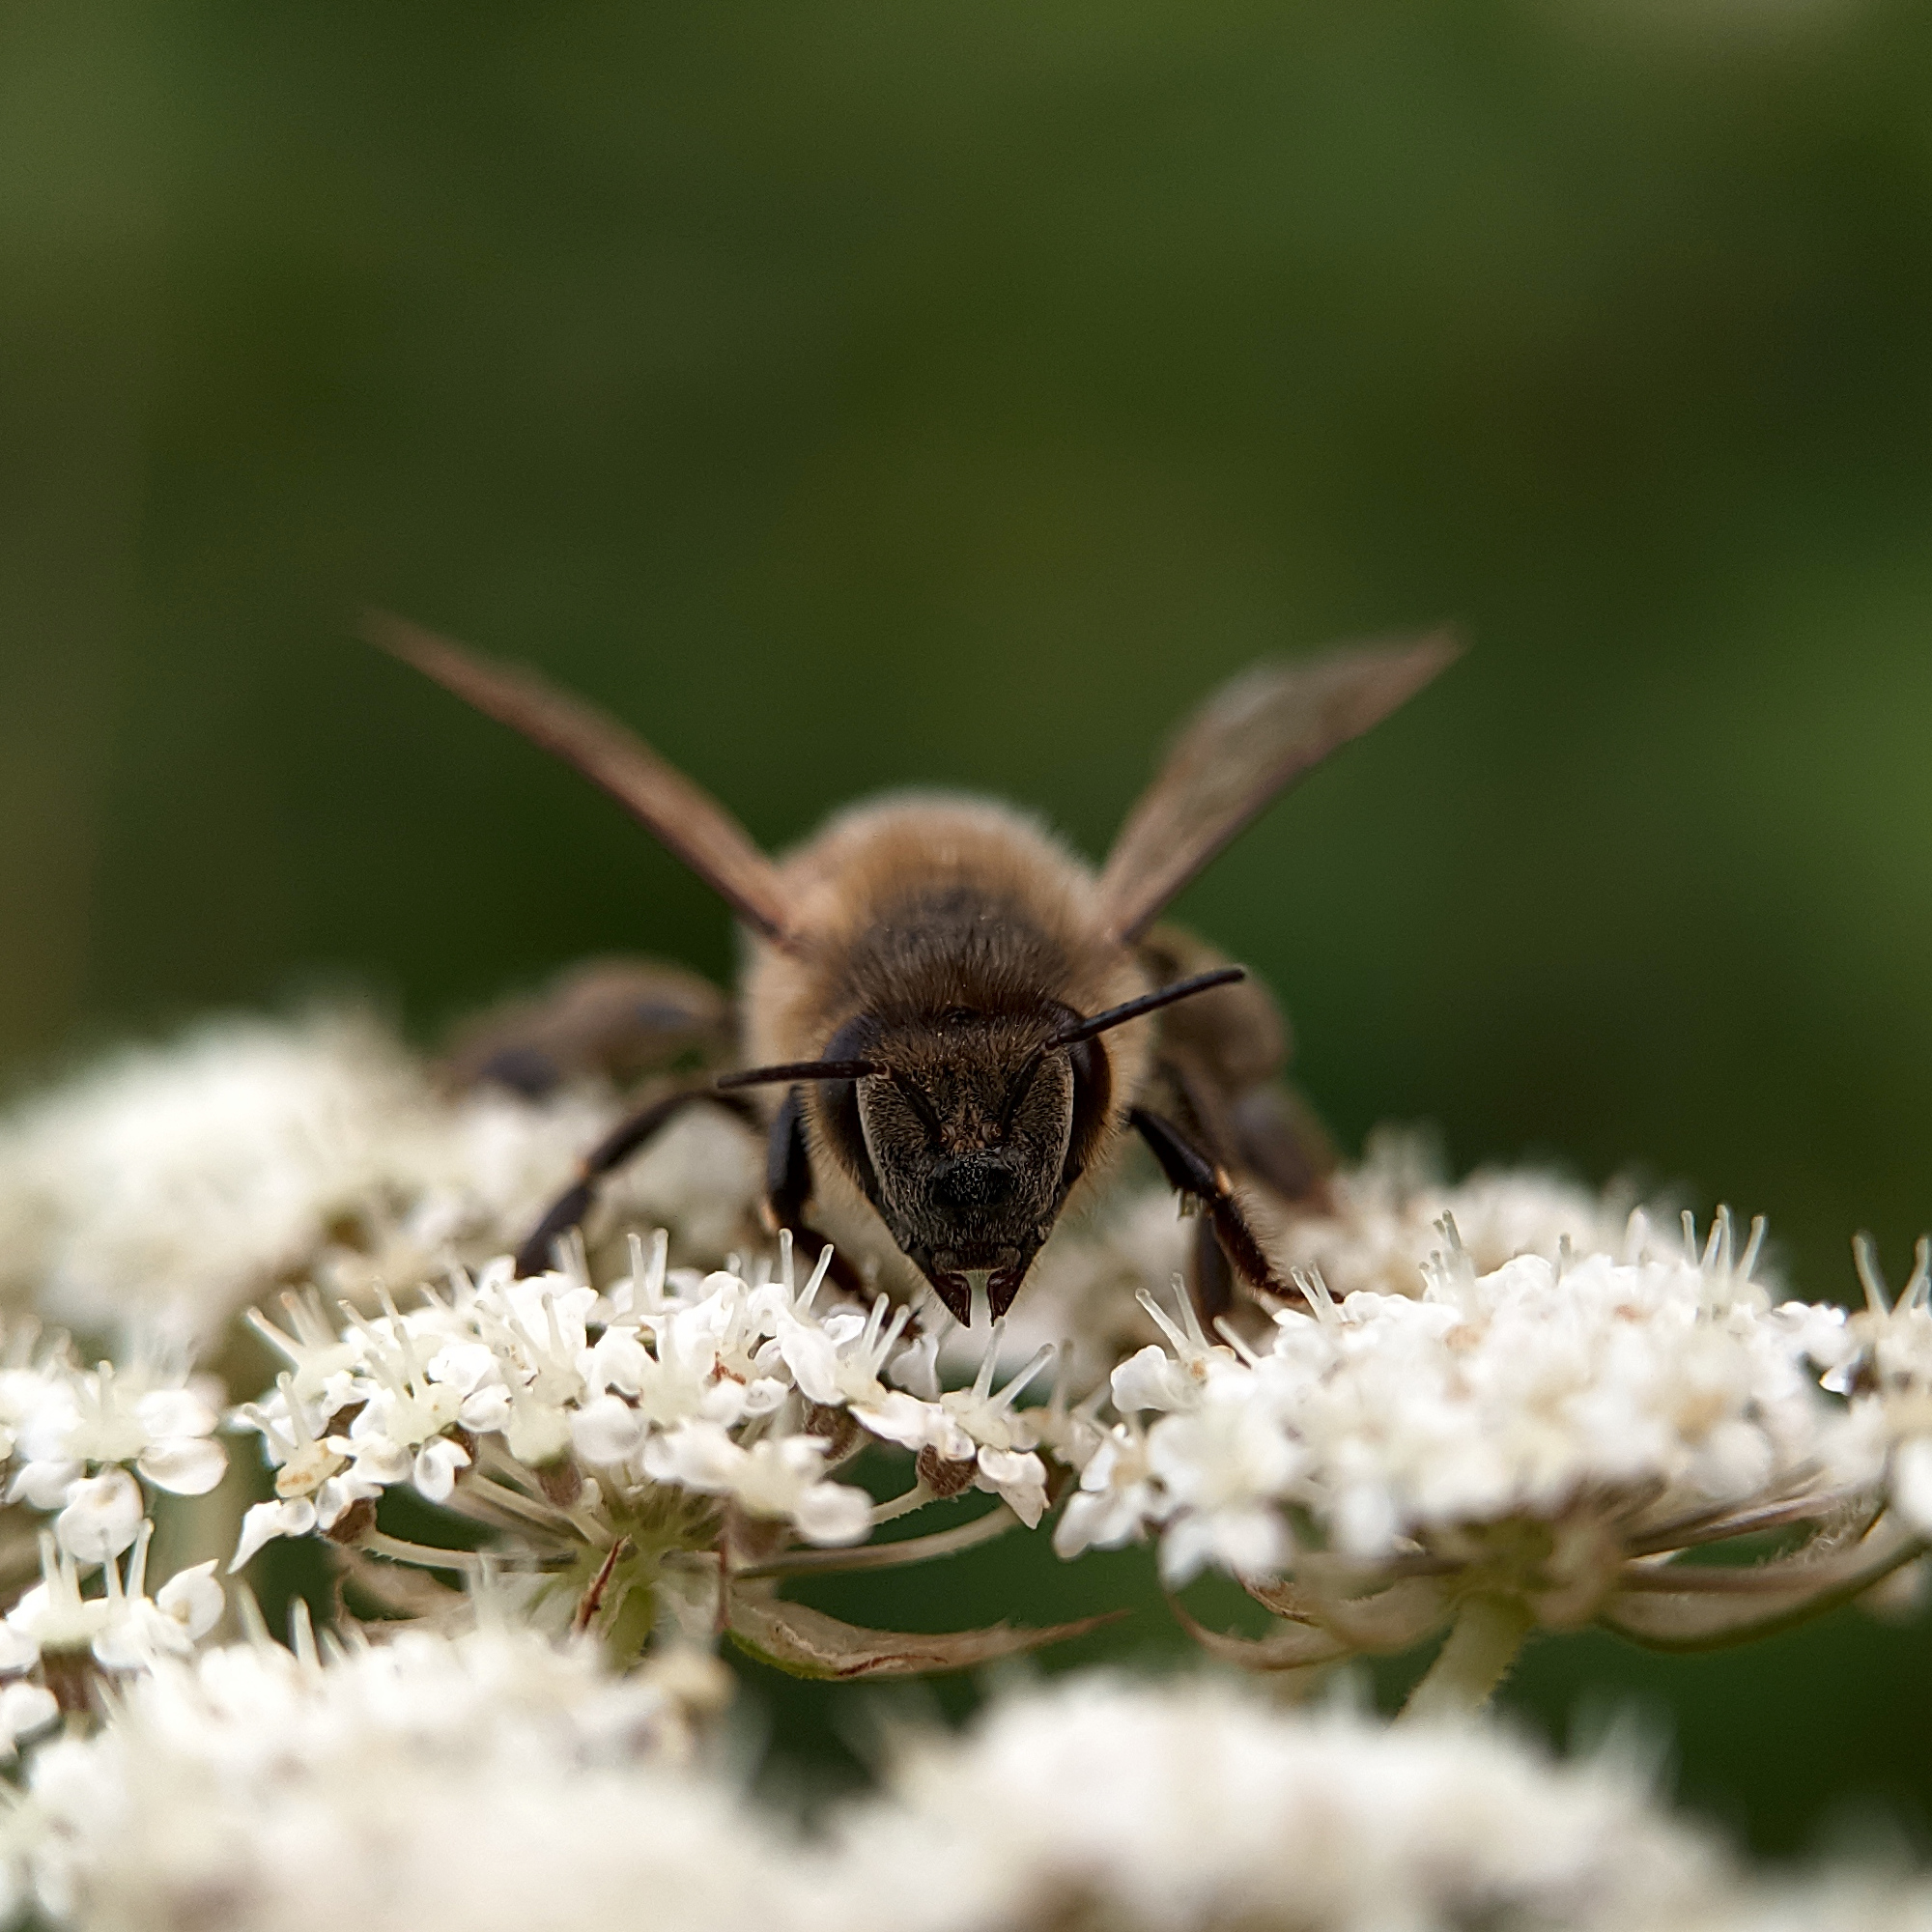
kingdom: Animalia
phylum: Arthropoda
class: Insecta
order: Hymenoptera
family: Apidae
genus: Apis
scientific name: Apis mellifera
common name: Honey bee
